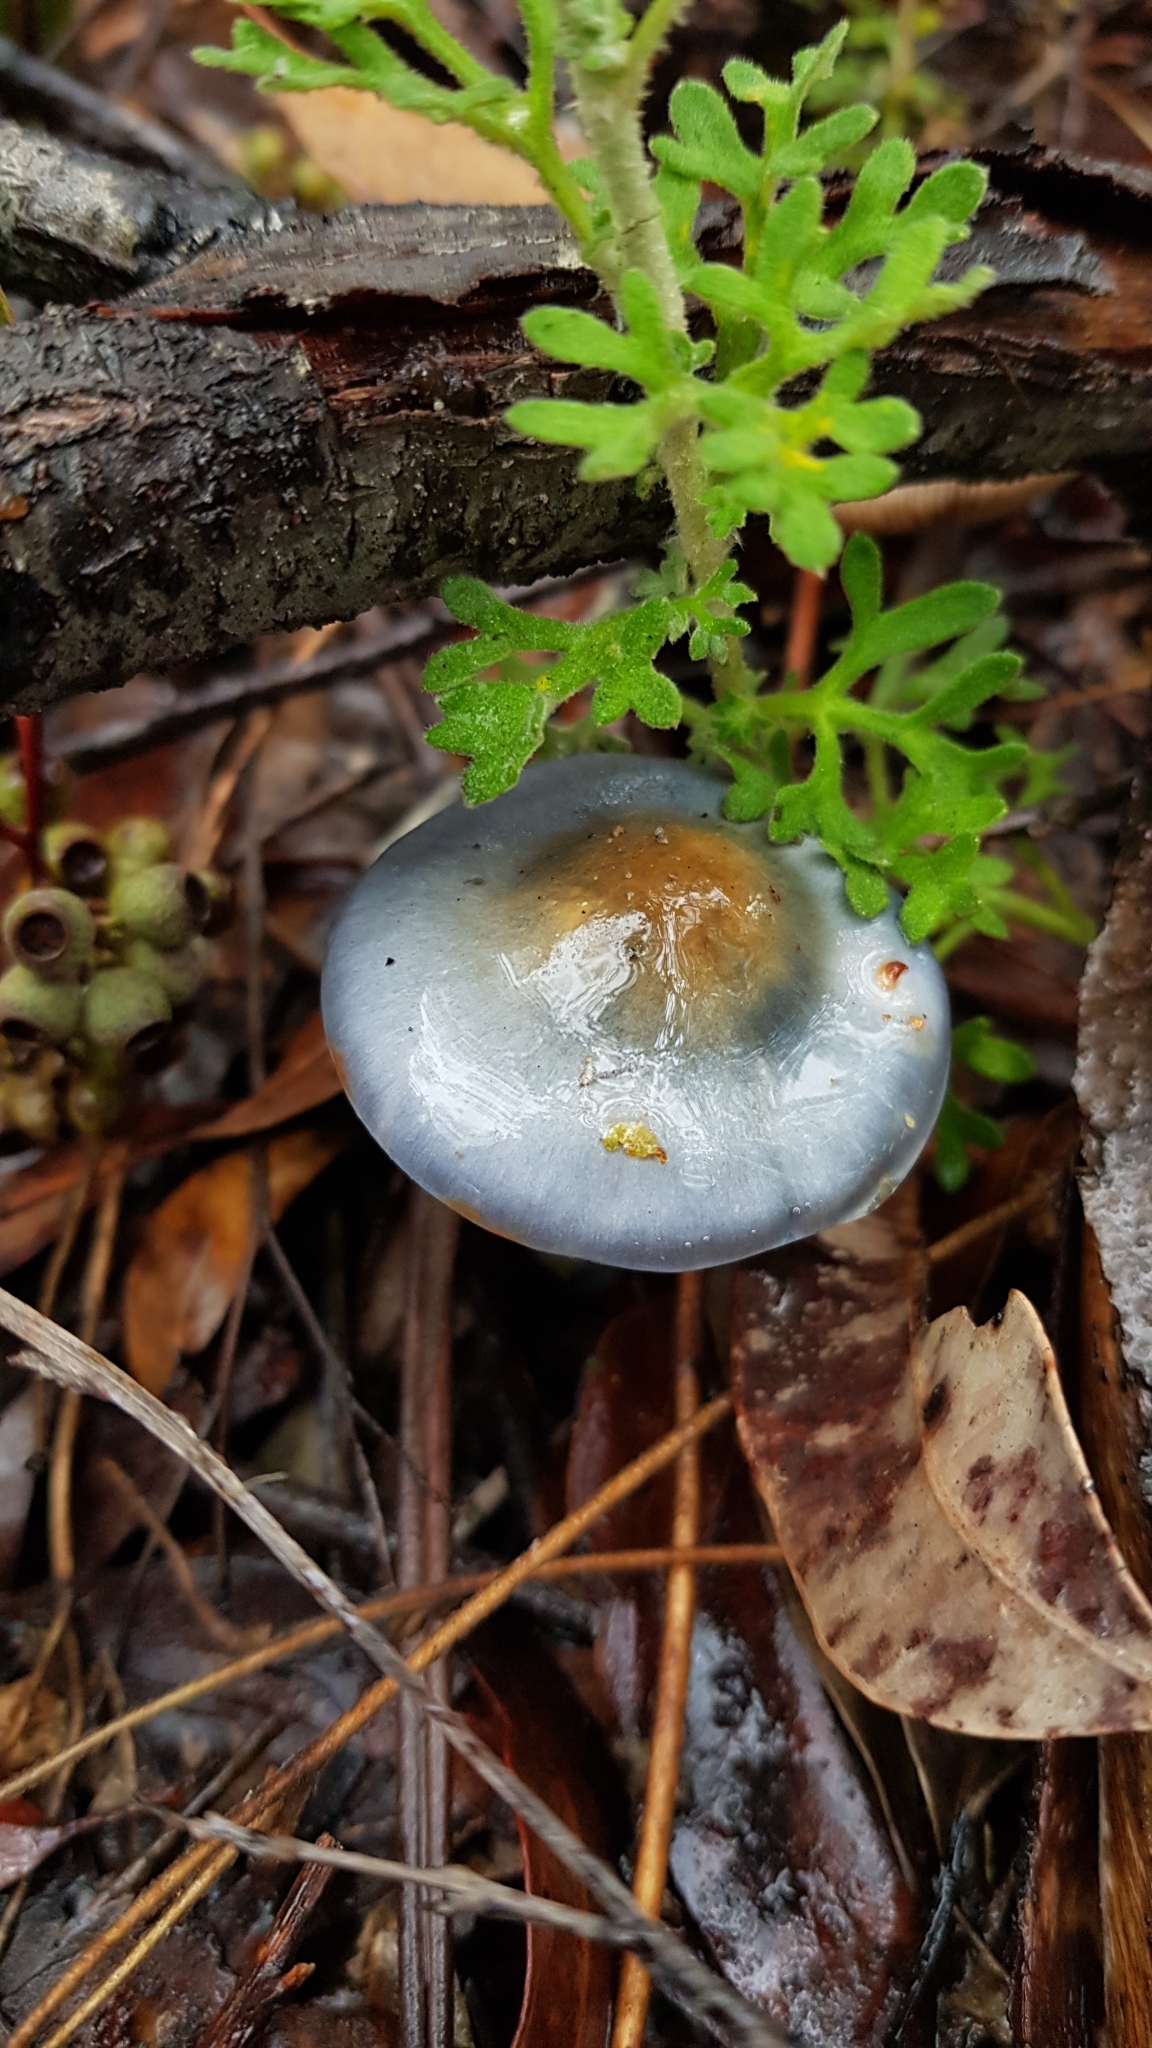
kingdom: Fungi
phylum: Basidiomycota
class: Agaricomycetes
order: Agaricales
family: Cortinariaceae
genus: Cortinarius
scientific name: Cortinarius rotundisporus
